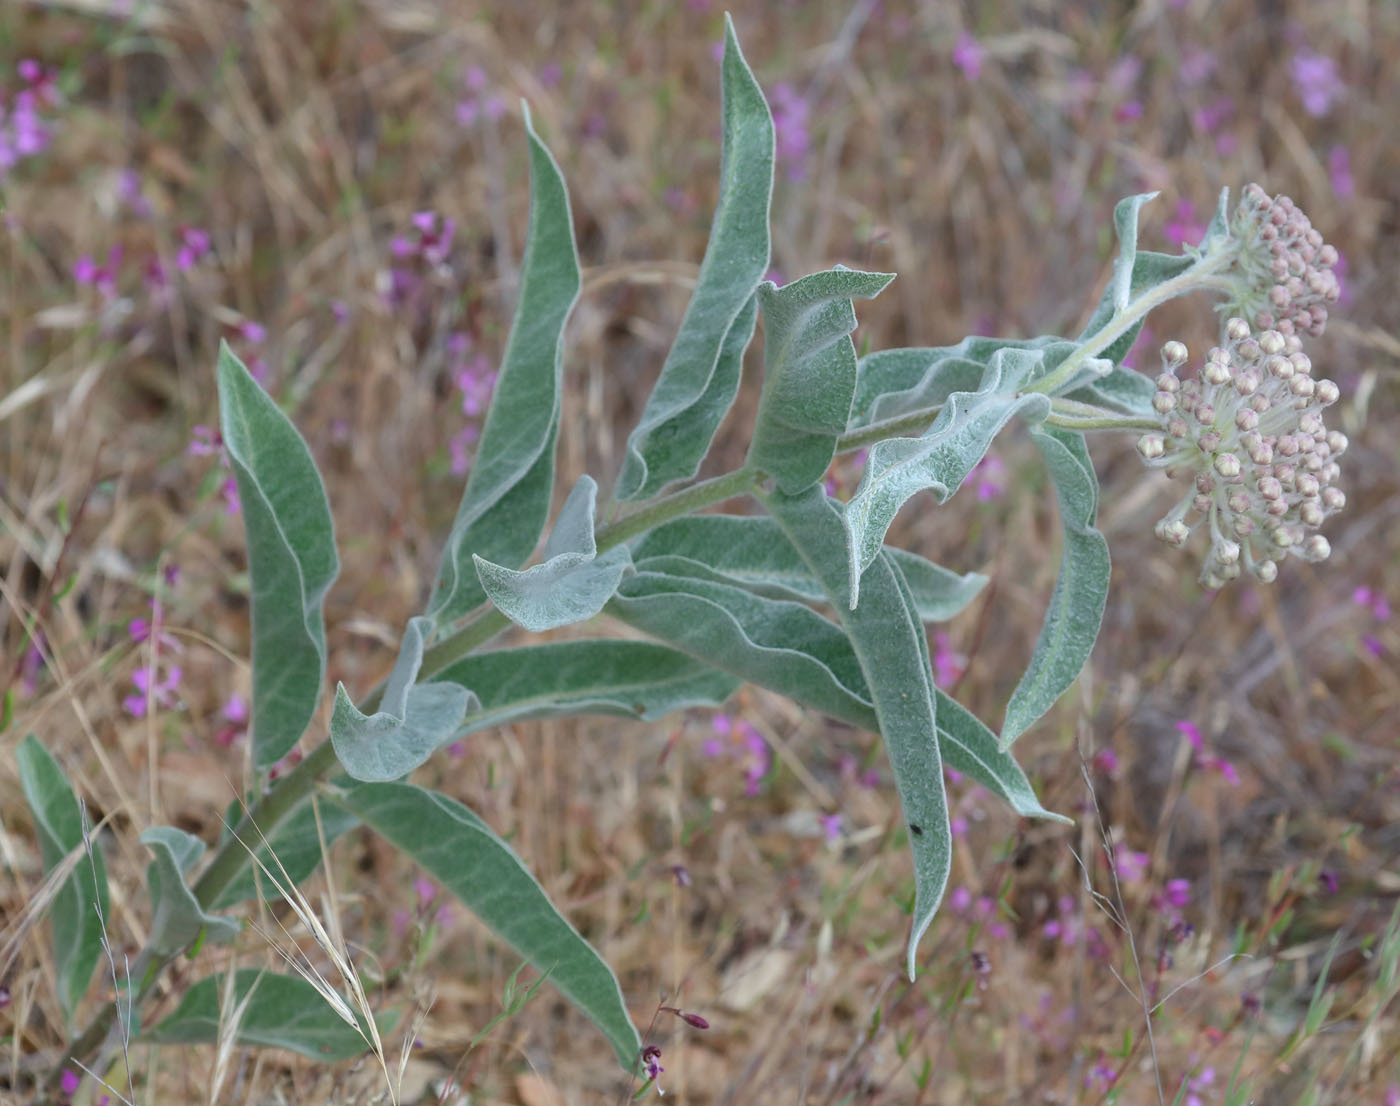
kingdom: Plantae
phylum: Tracheophyta
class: Magnoliopsida
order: Gentianales
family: Apocynaceae
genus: Asclepias
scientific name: Asclepias eriocarpa
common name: Indian milkweed
